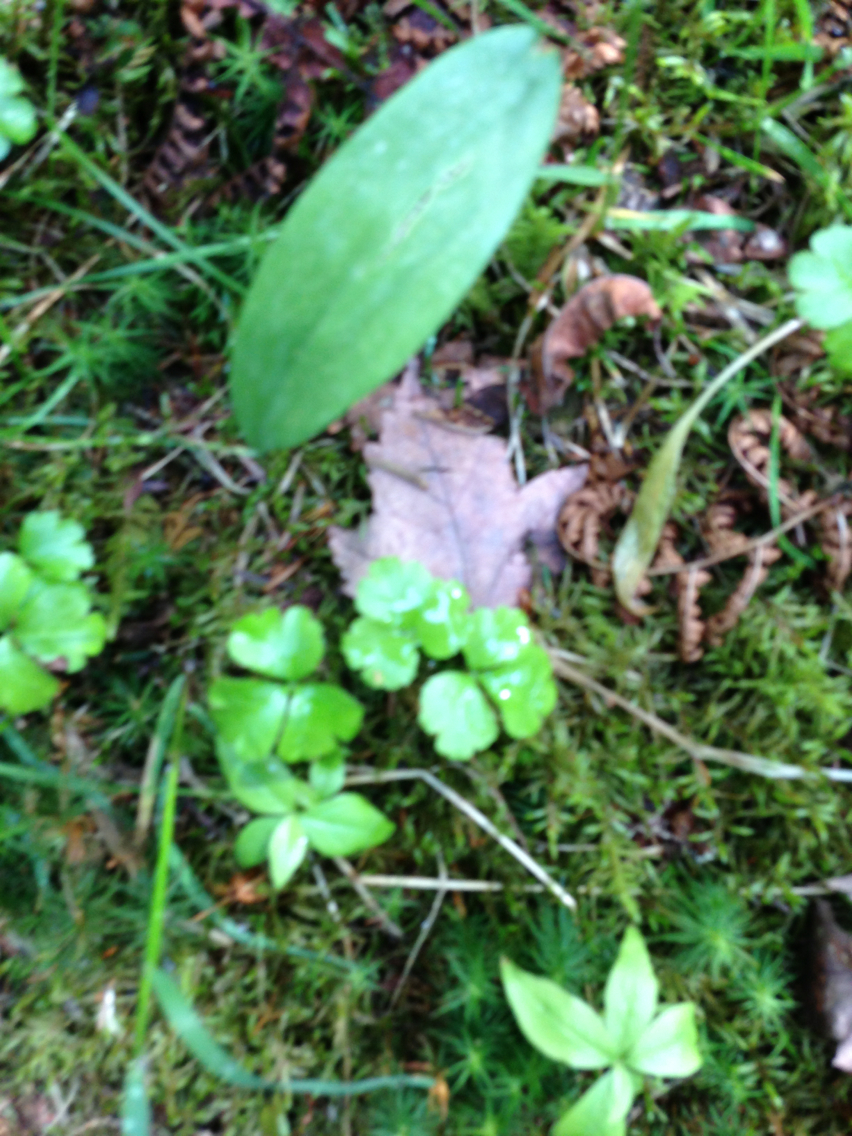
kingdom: Plantae
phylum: Tracheophyta
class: Magnoliopsida
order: Ranunculales
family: Ranunculaceae
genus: Coptis
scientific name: Coptis trifolia
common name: Canker-root
